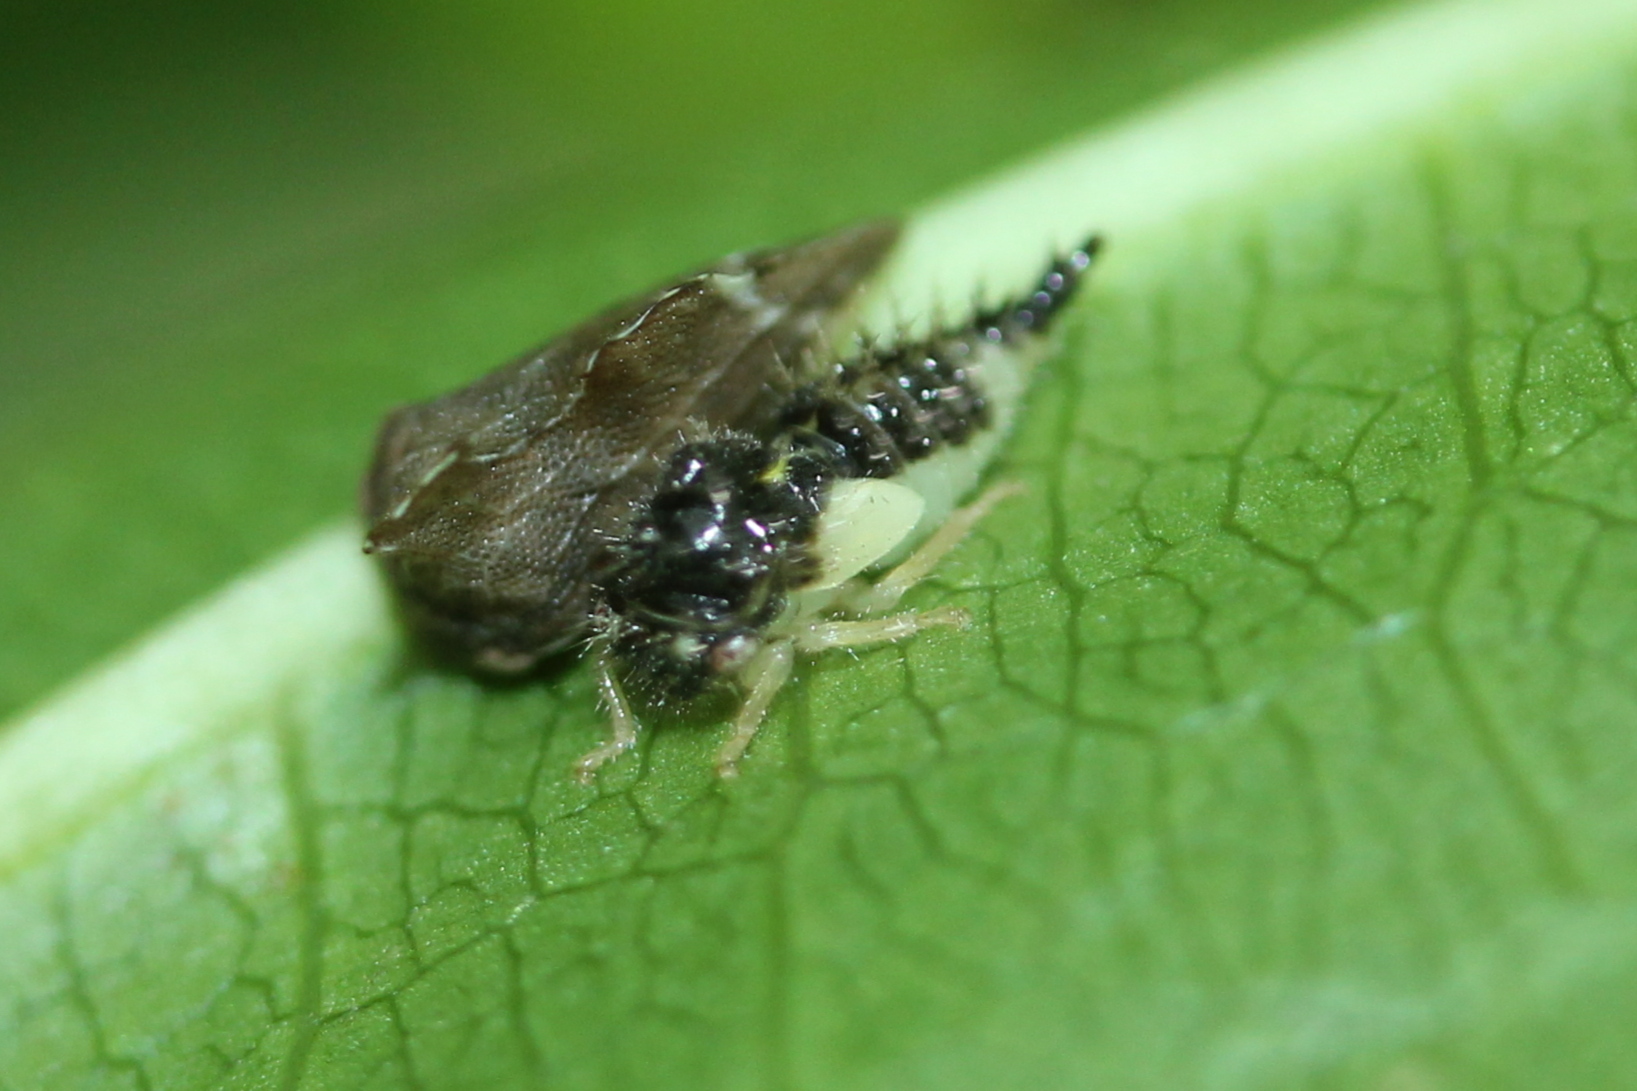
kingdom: Animalia
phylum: Arthropoda
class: Insecta
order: Hemiptera
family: Membracidae
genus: Entylia
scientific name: Entylia carinata
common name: Keeled treehopper
